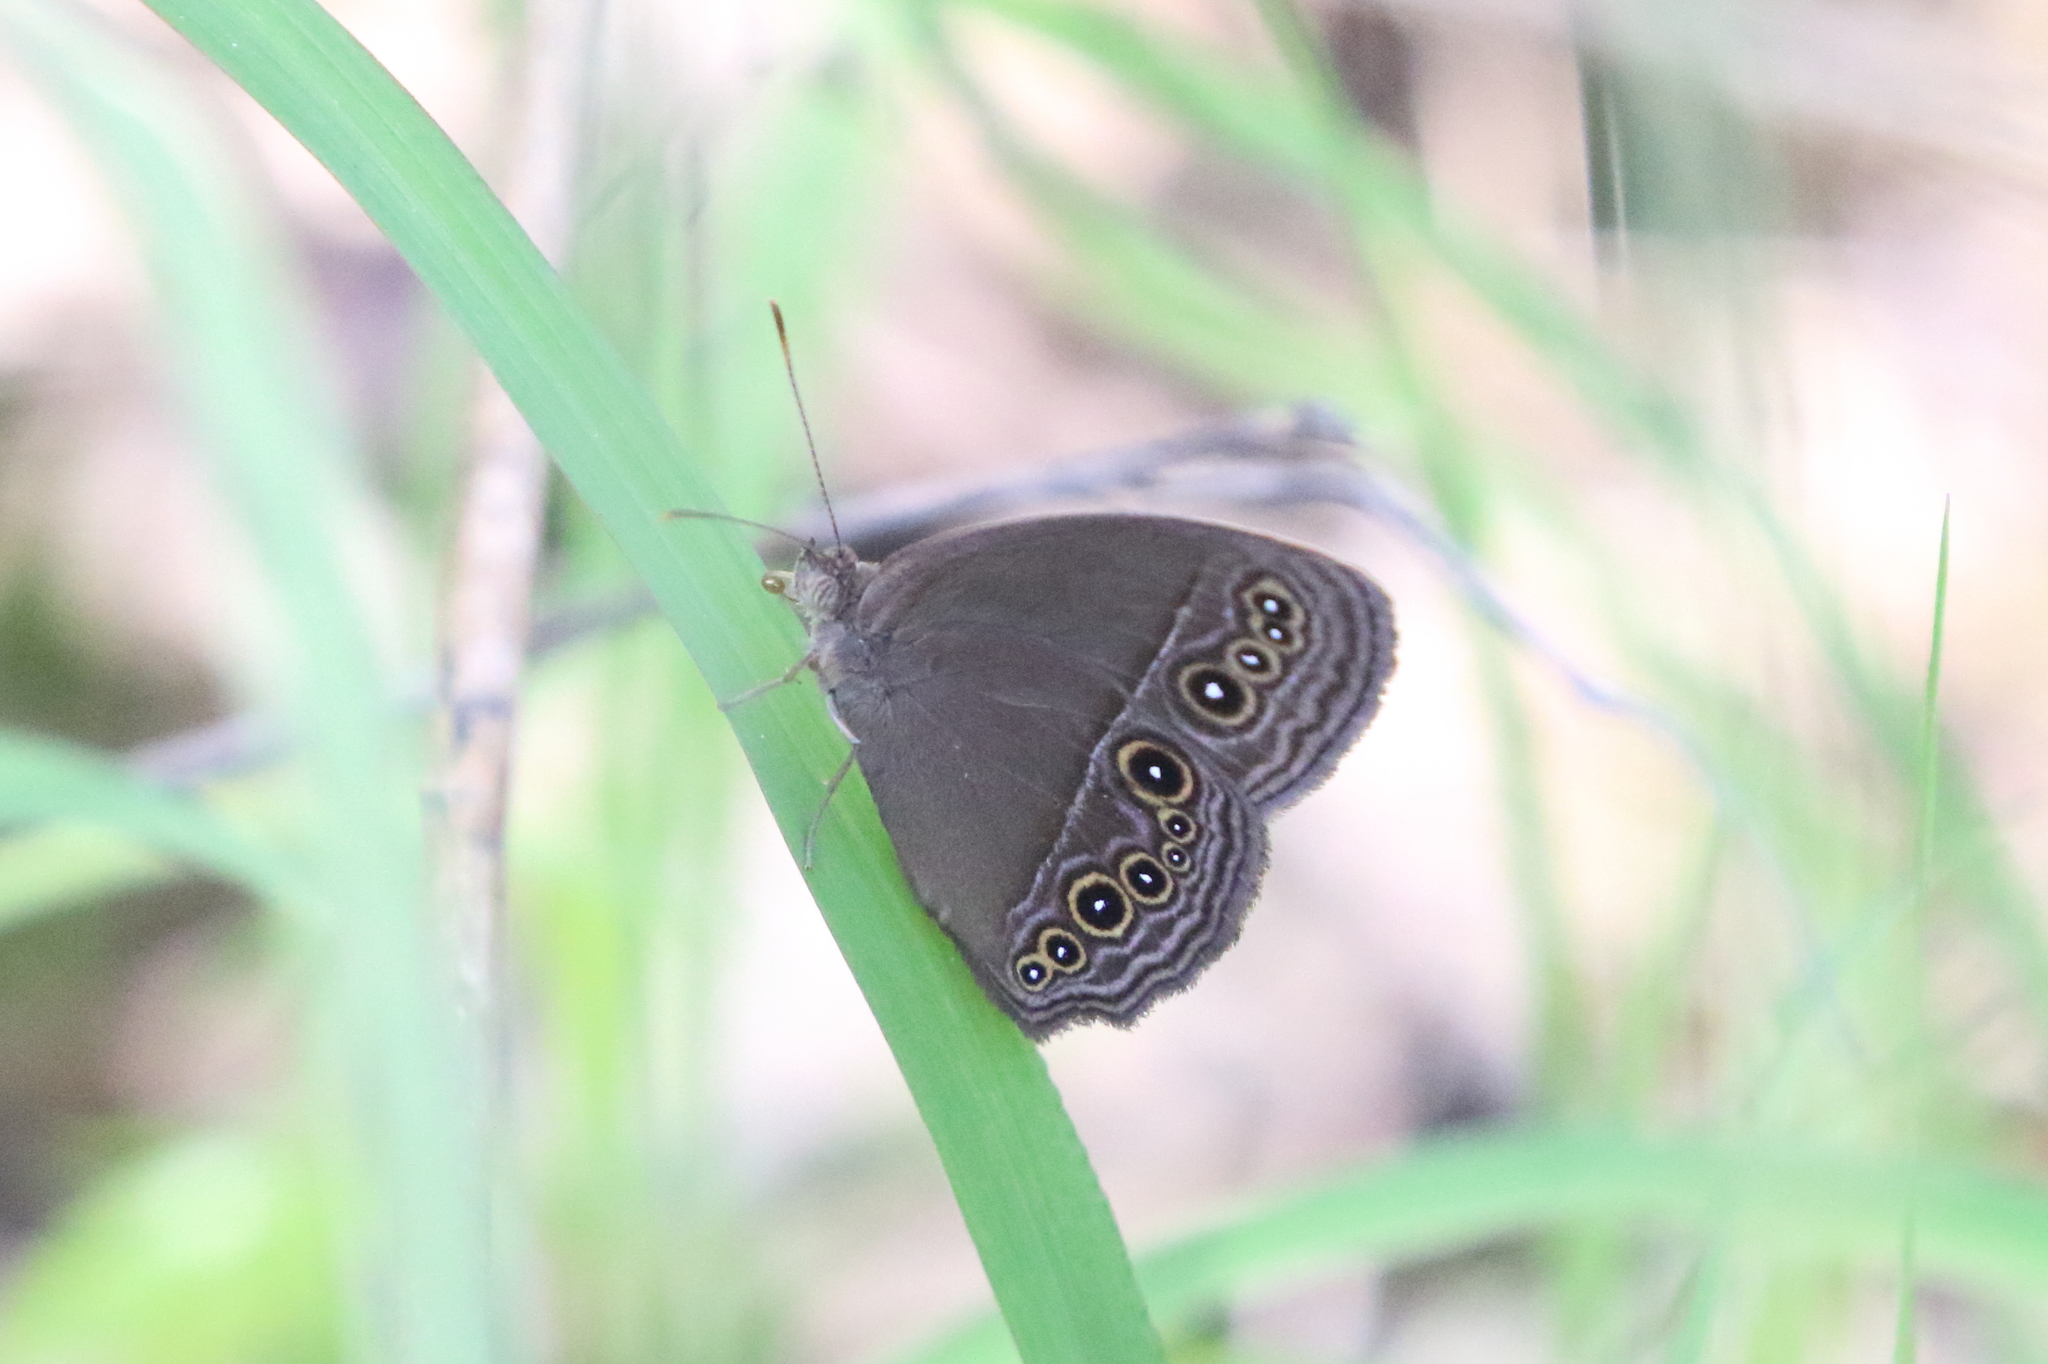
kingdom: Animalia
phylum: Arthropoda
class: Insecta
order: Lepidoptera
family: Nymphalidae
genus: Mycalesis
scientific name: Mycalesis perseus
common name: Dingy bushbrown
